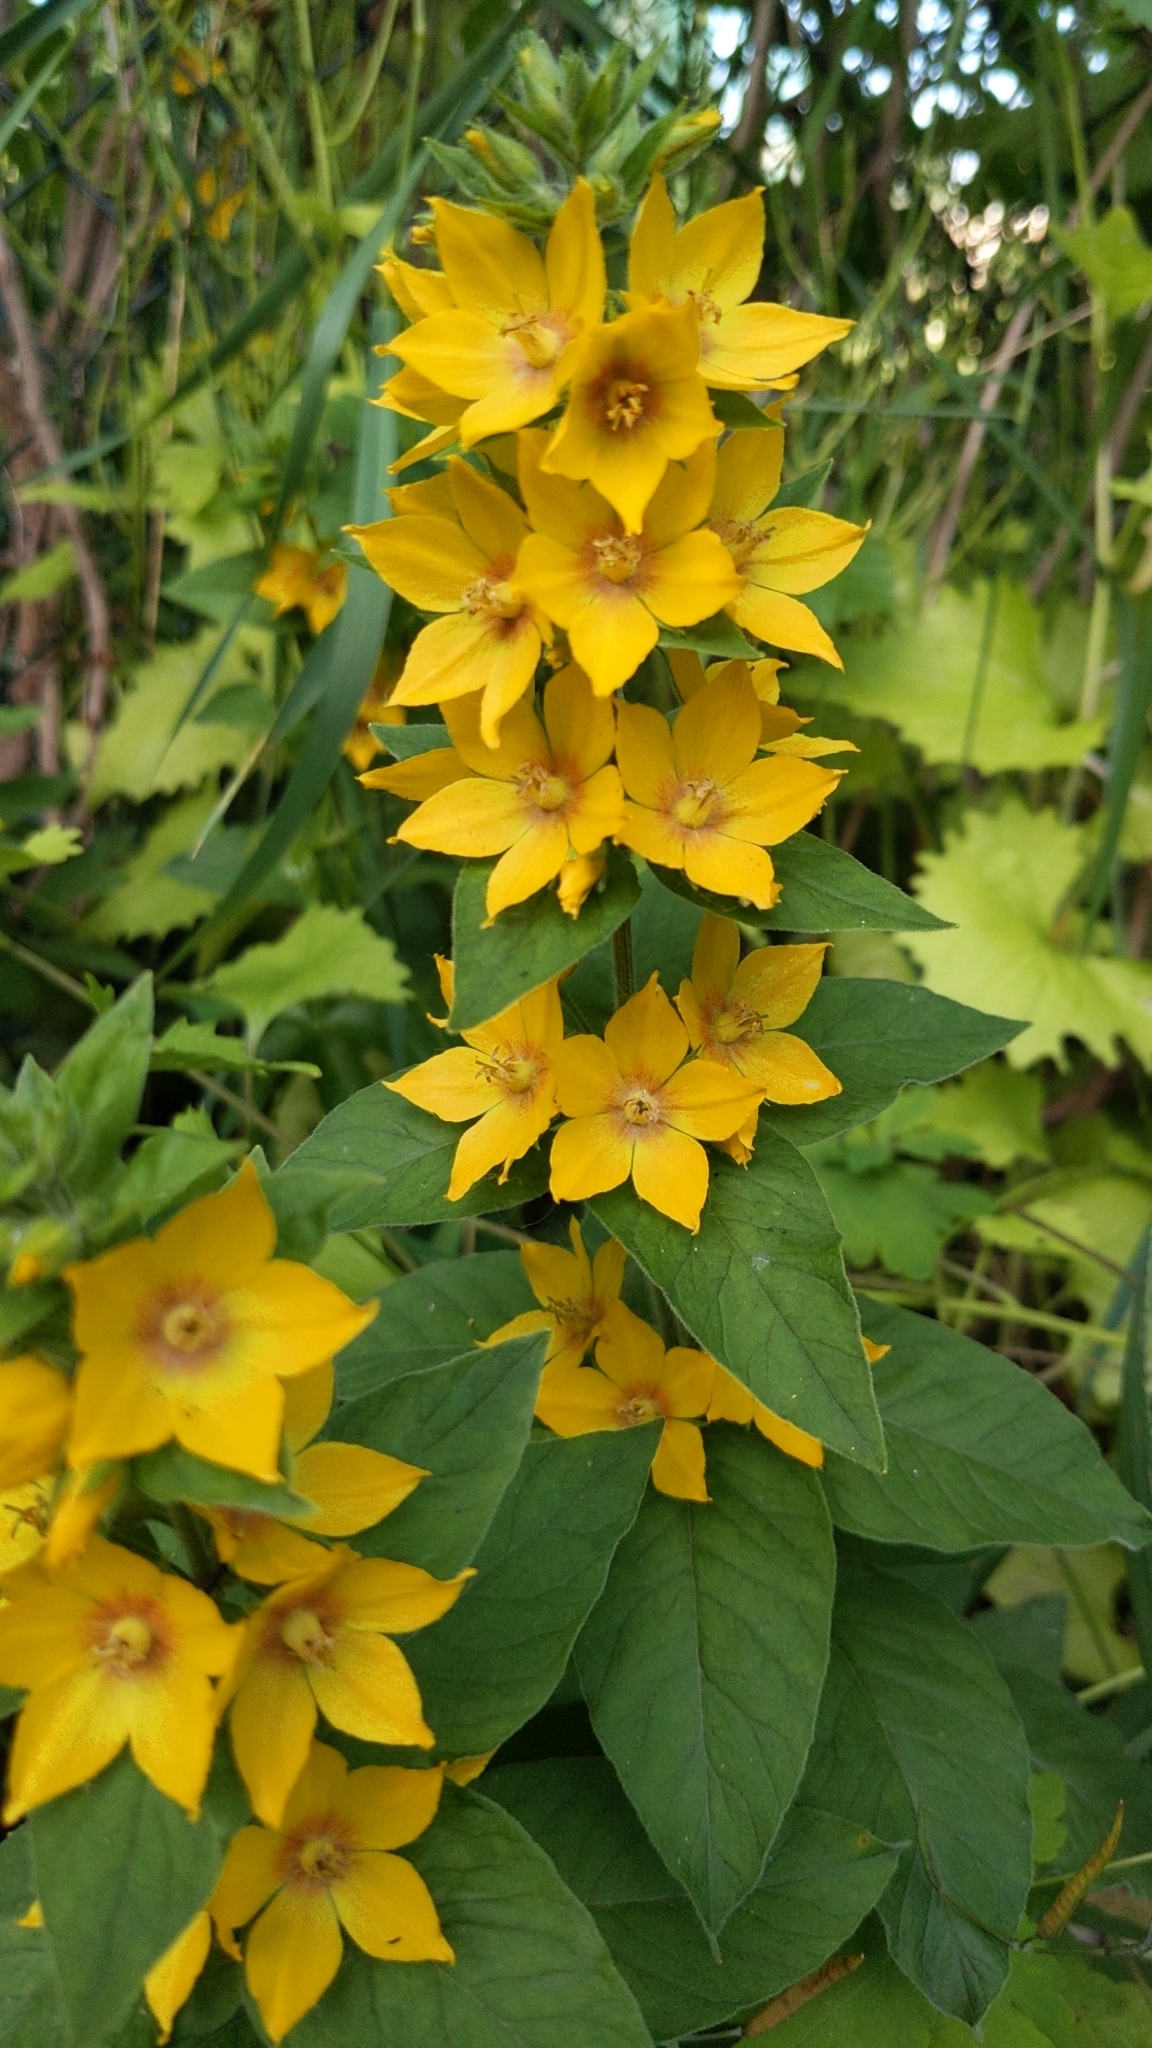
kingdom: Plantae
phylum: Tracheophyta
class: Magnoliopsida
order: Ericales
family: Primulaceae
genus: Lysimachia
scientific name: Lysimachia punctata
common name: Dotted loosestrife
